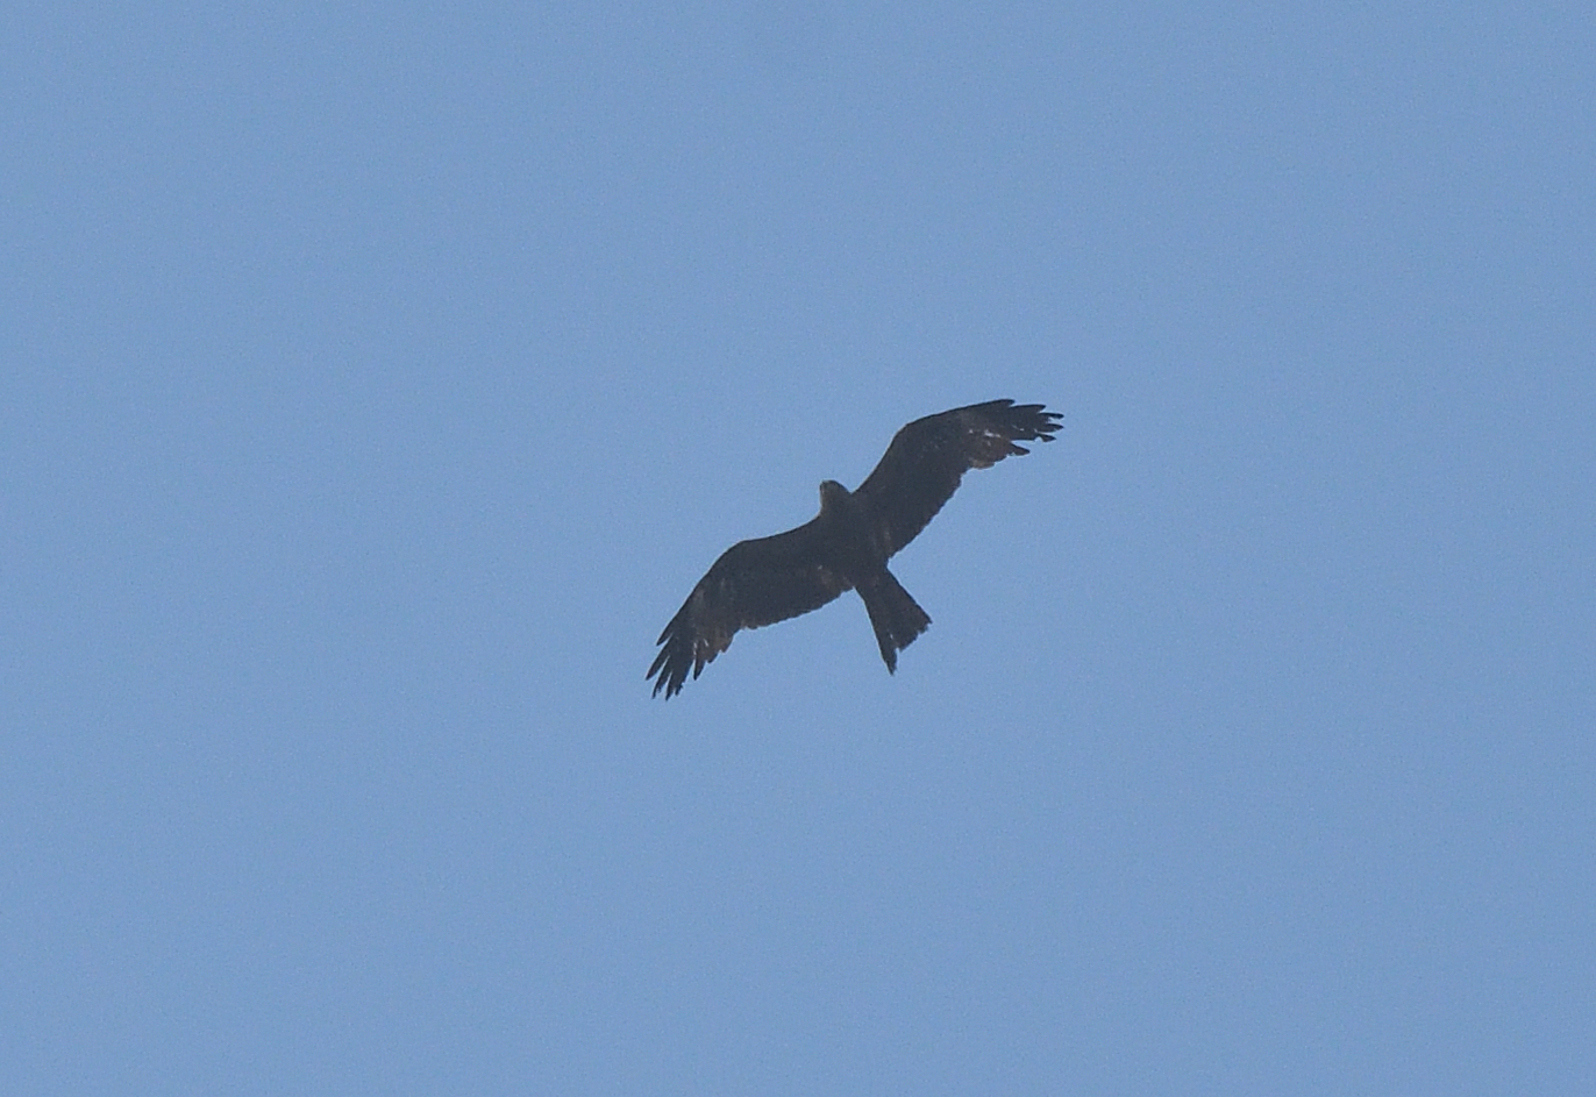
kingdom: Animalia
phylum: Chordata
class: Aves
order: Accipitriformes
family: Accipitridae
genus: Milvus
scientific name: Milvus migrans
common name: Black kite
